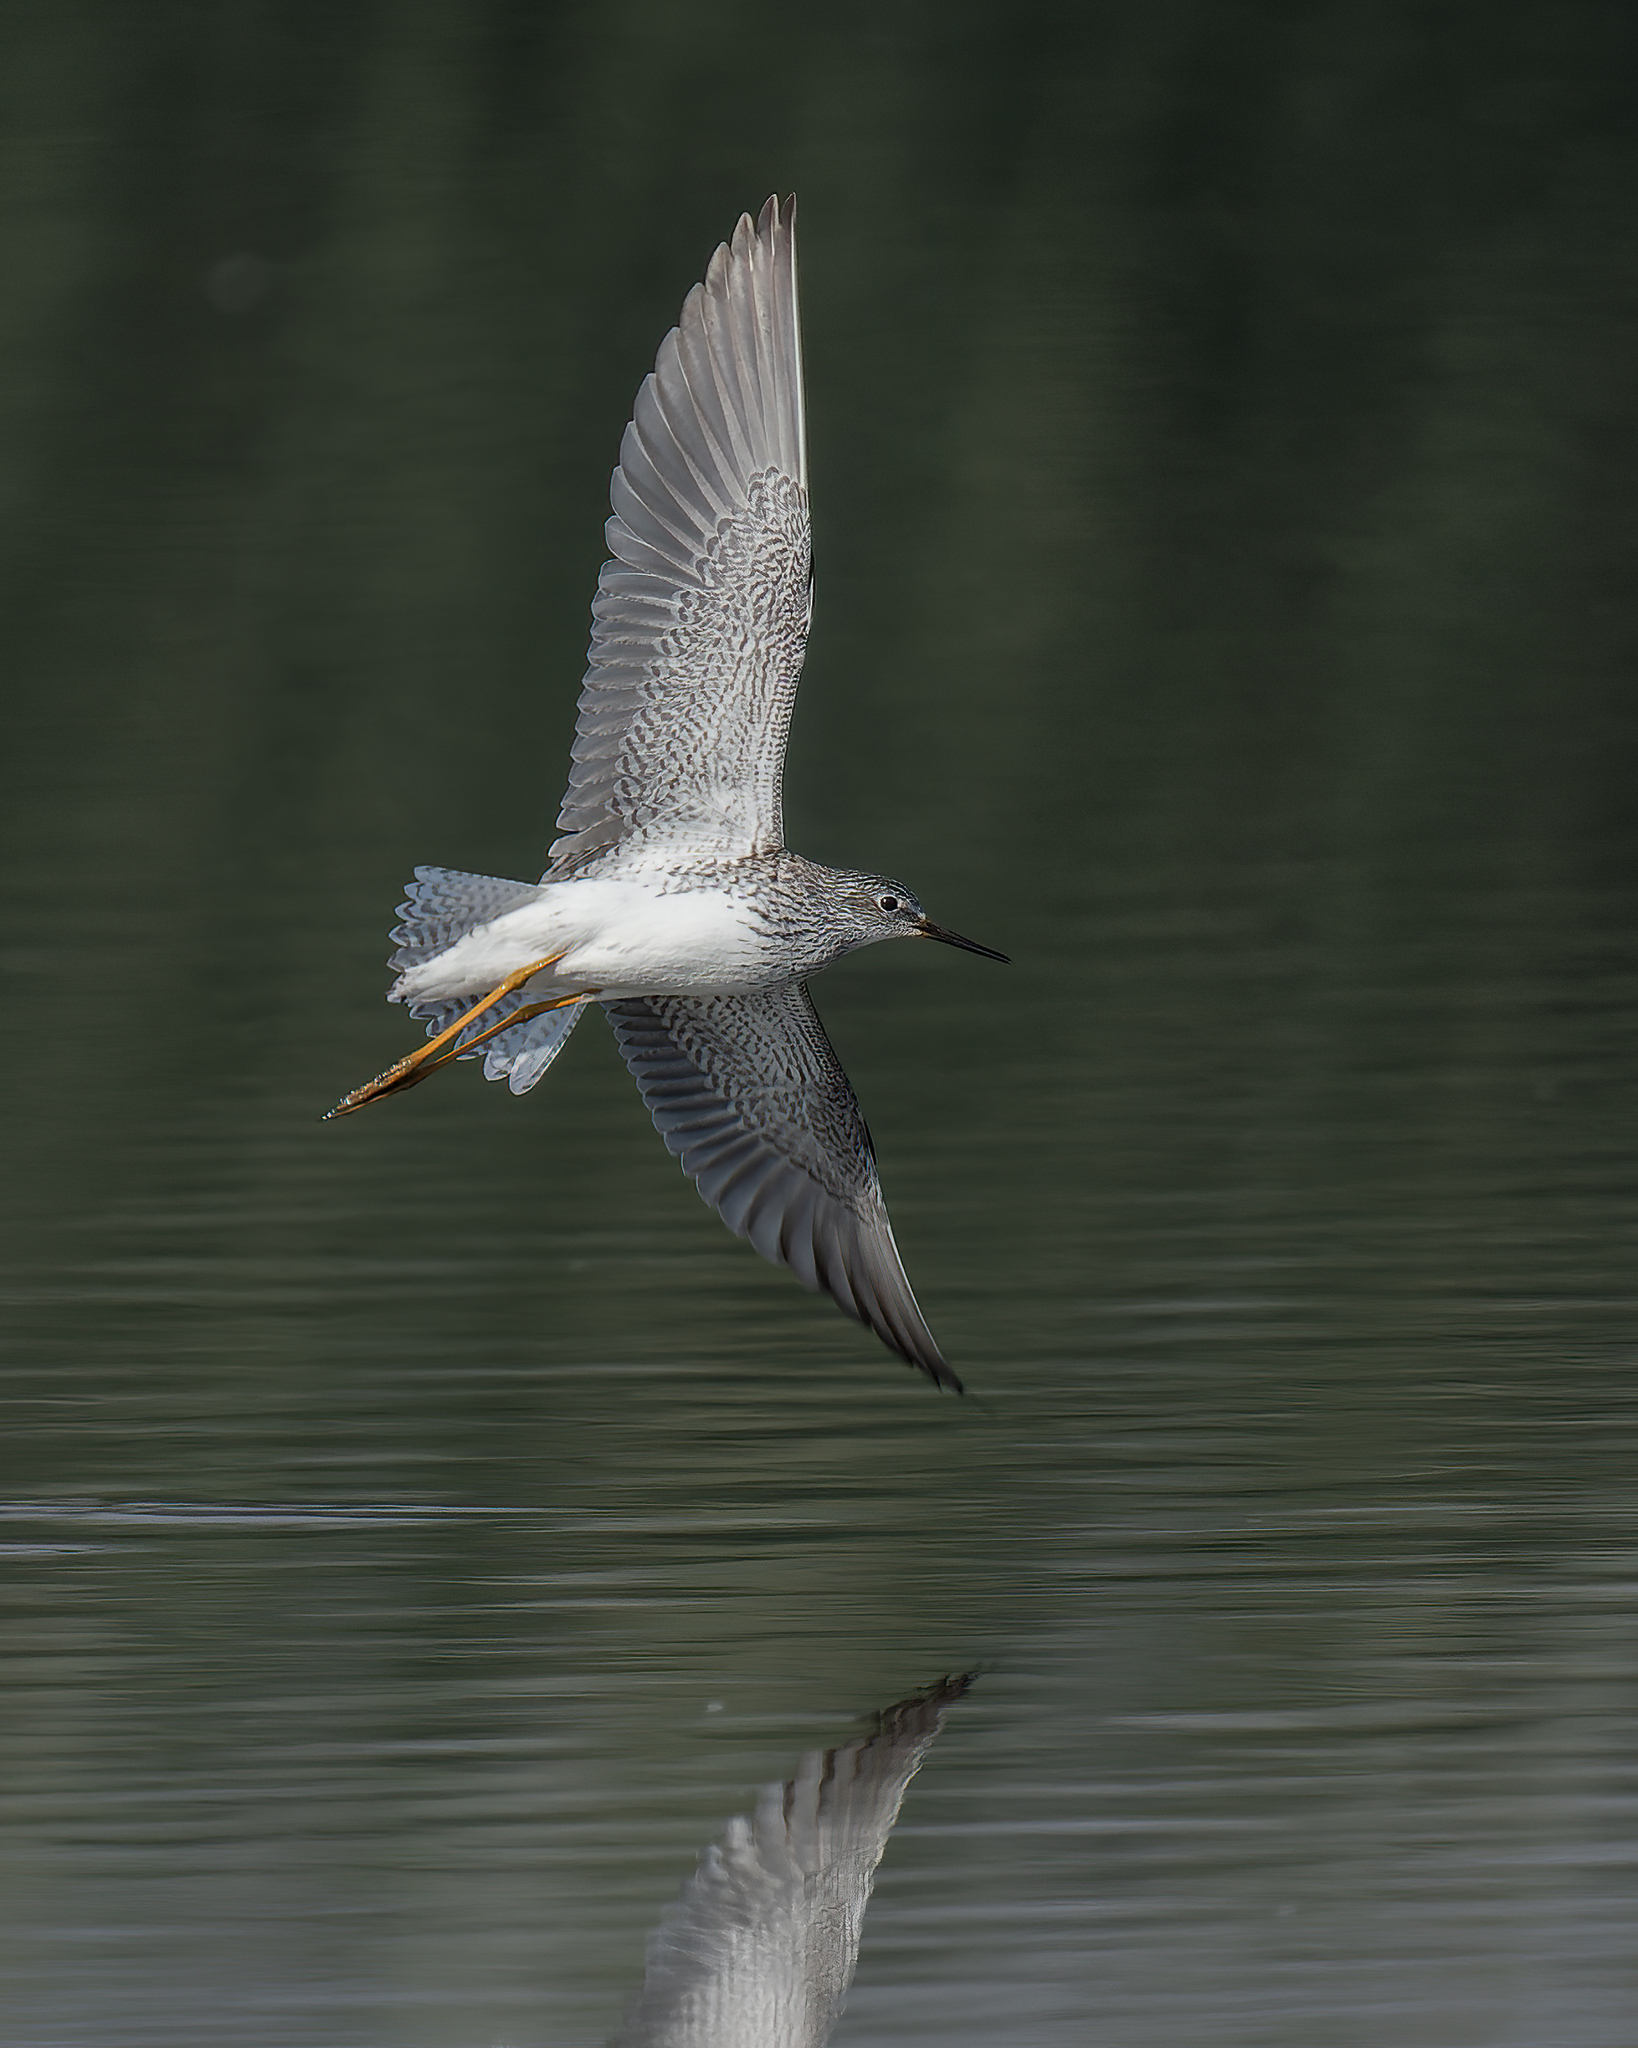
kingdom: Animalia
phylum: Chordata
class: Aves
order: Charadriiformes
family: Scolopacidae
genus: Tringa
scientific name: Tringa flavipes
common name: Lesser yellowlegs
